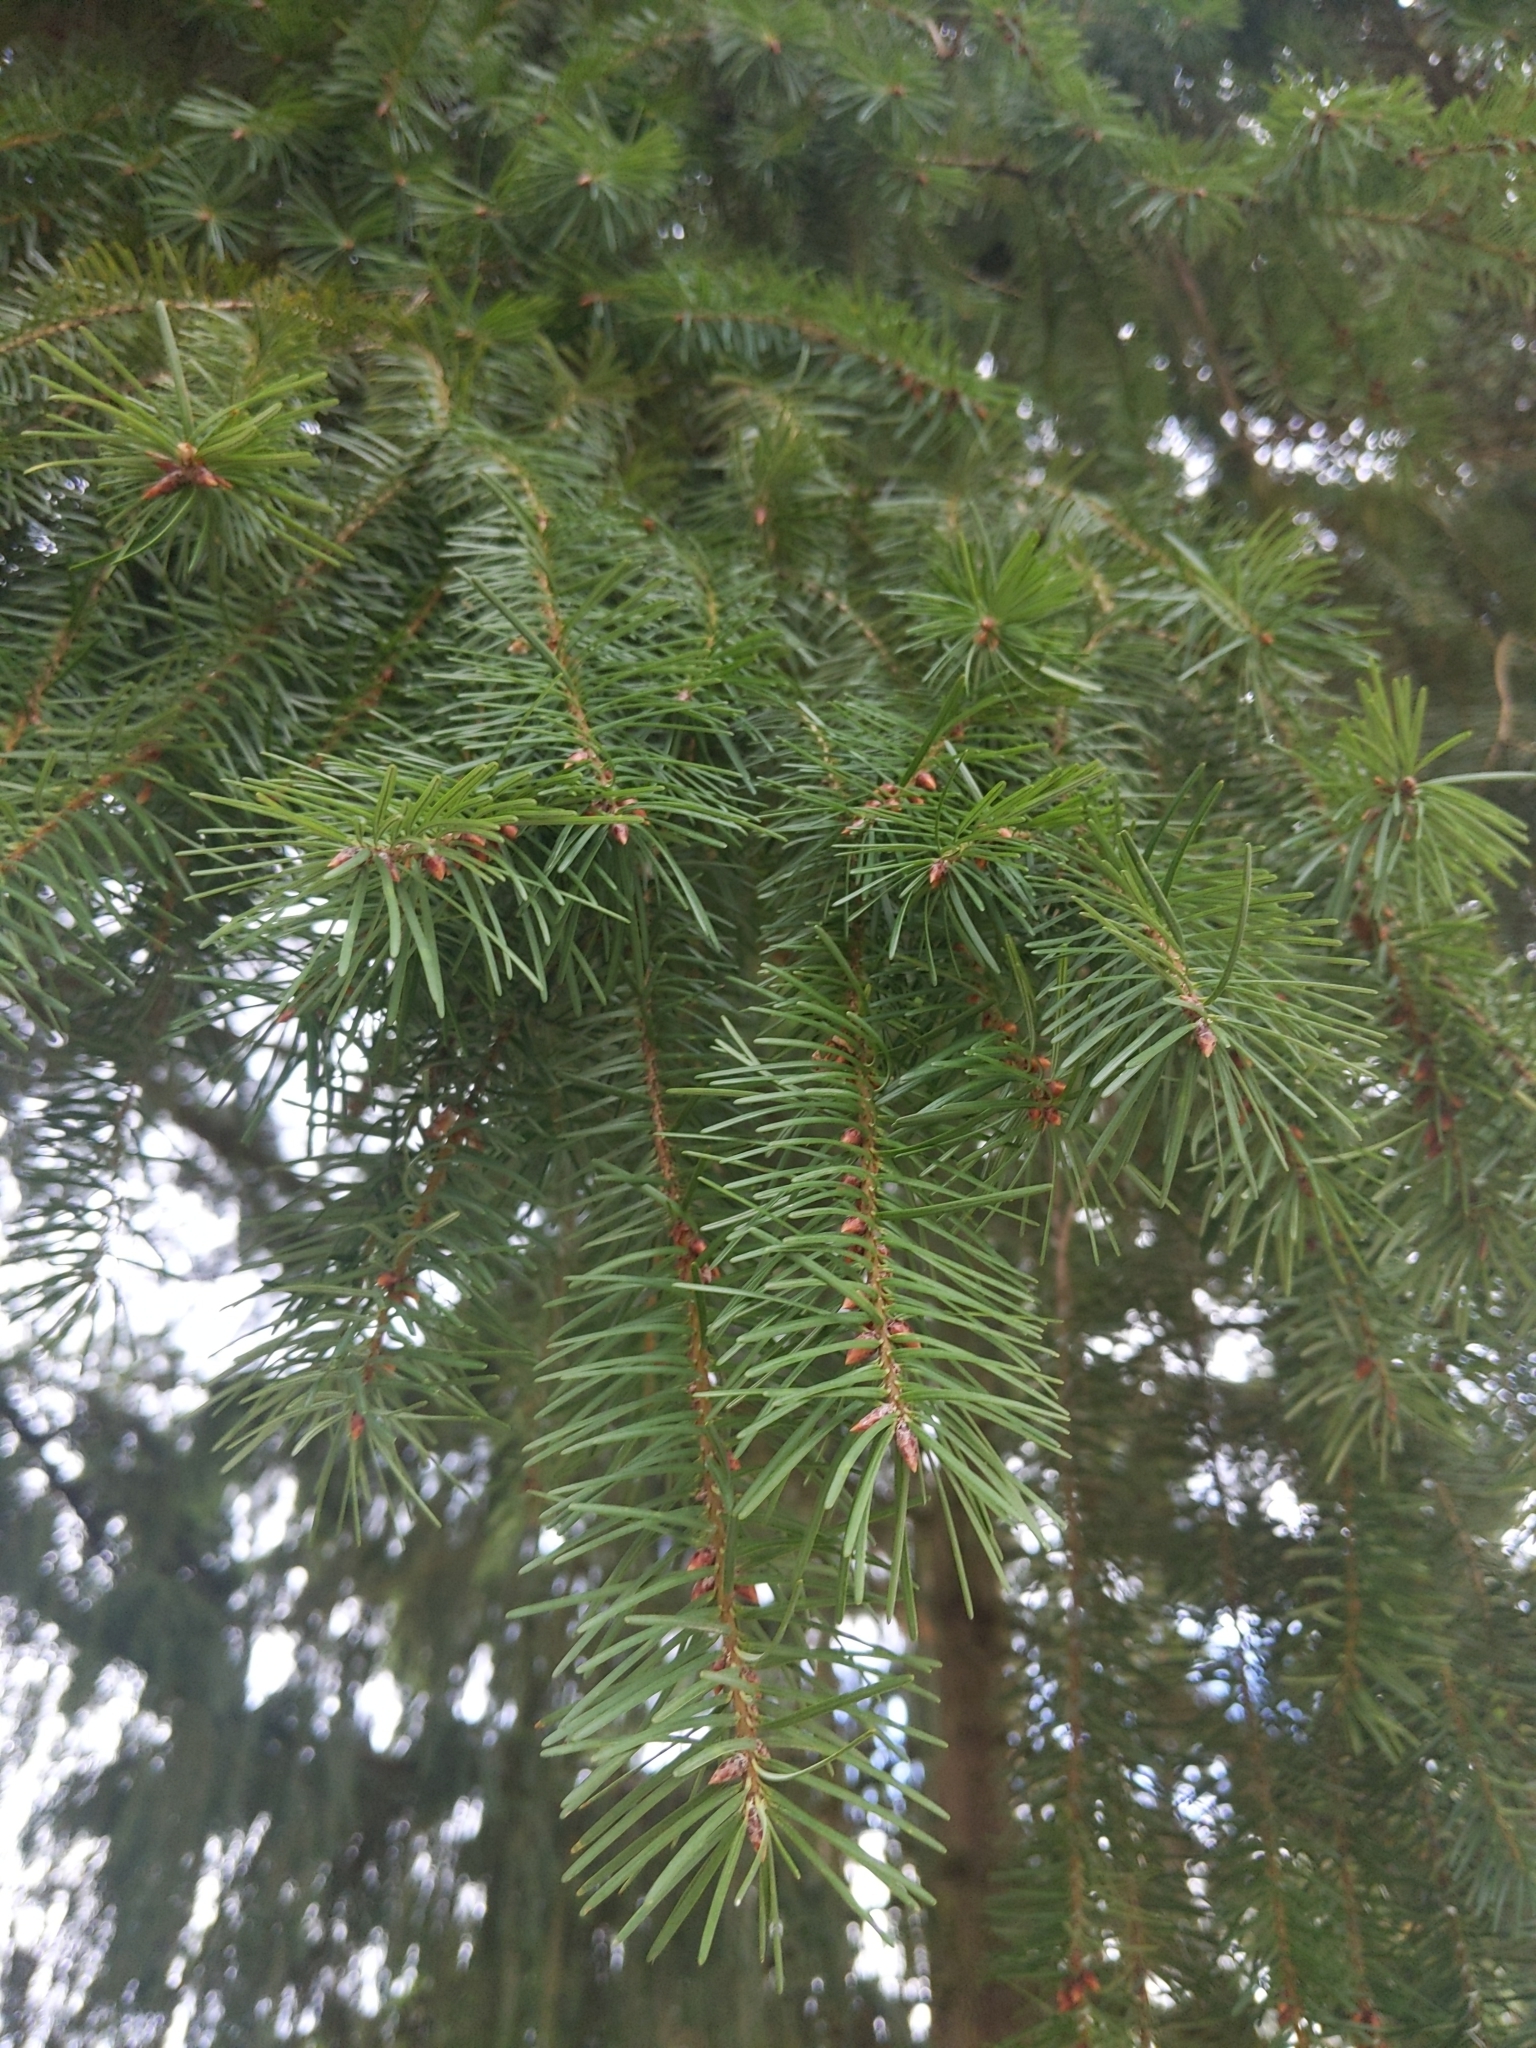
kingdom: Plantae
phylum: Tracheophyta
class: Pinopsida
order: Pinales
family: Pinaceae
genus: Pseudotsuga
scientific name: Pseudotsuga menziesii
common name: Douglas fir
